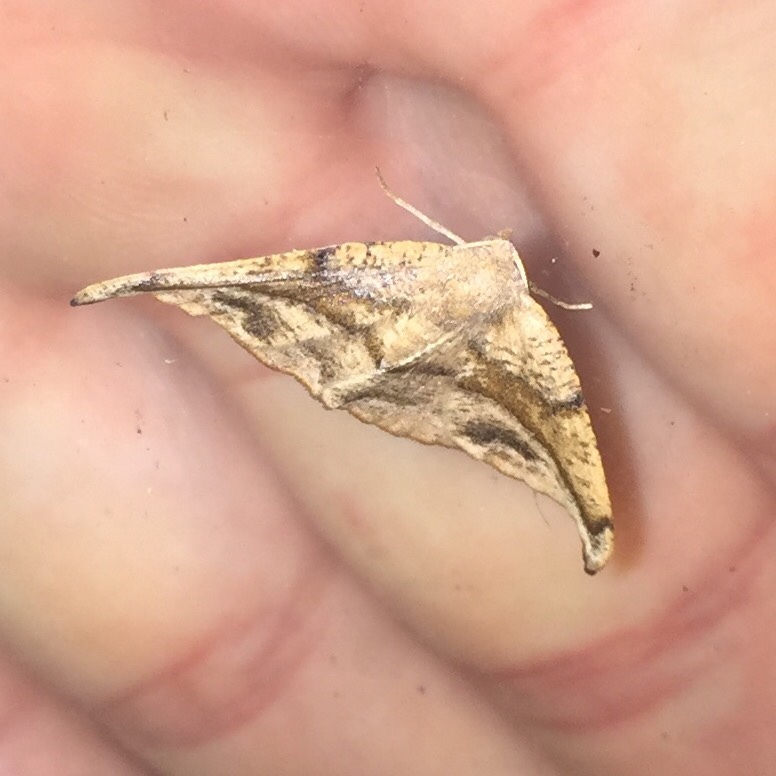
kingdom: Animalia
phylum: Arthropoda
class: Insecta
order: Lepidoptera
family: Geometridae
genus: Patalene
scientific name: Patalene olyzonaria
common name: Juniper geometer moth
